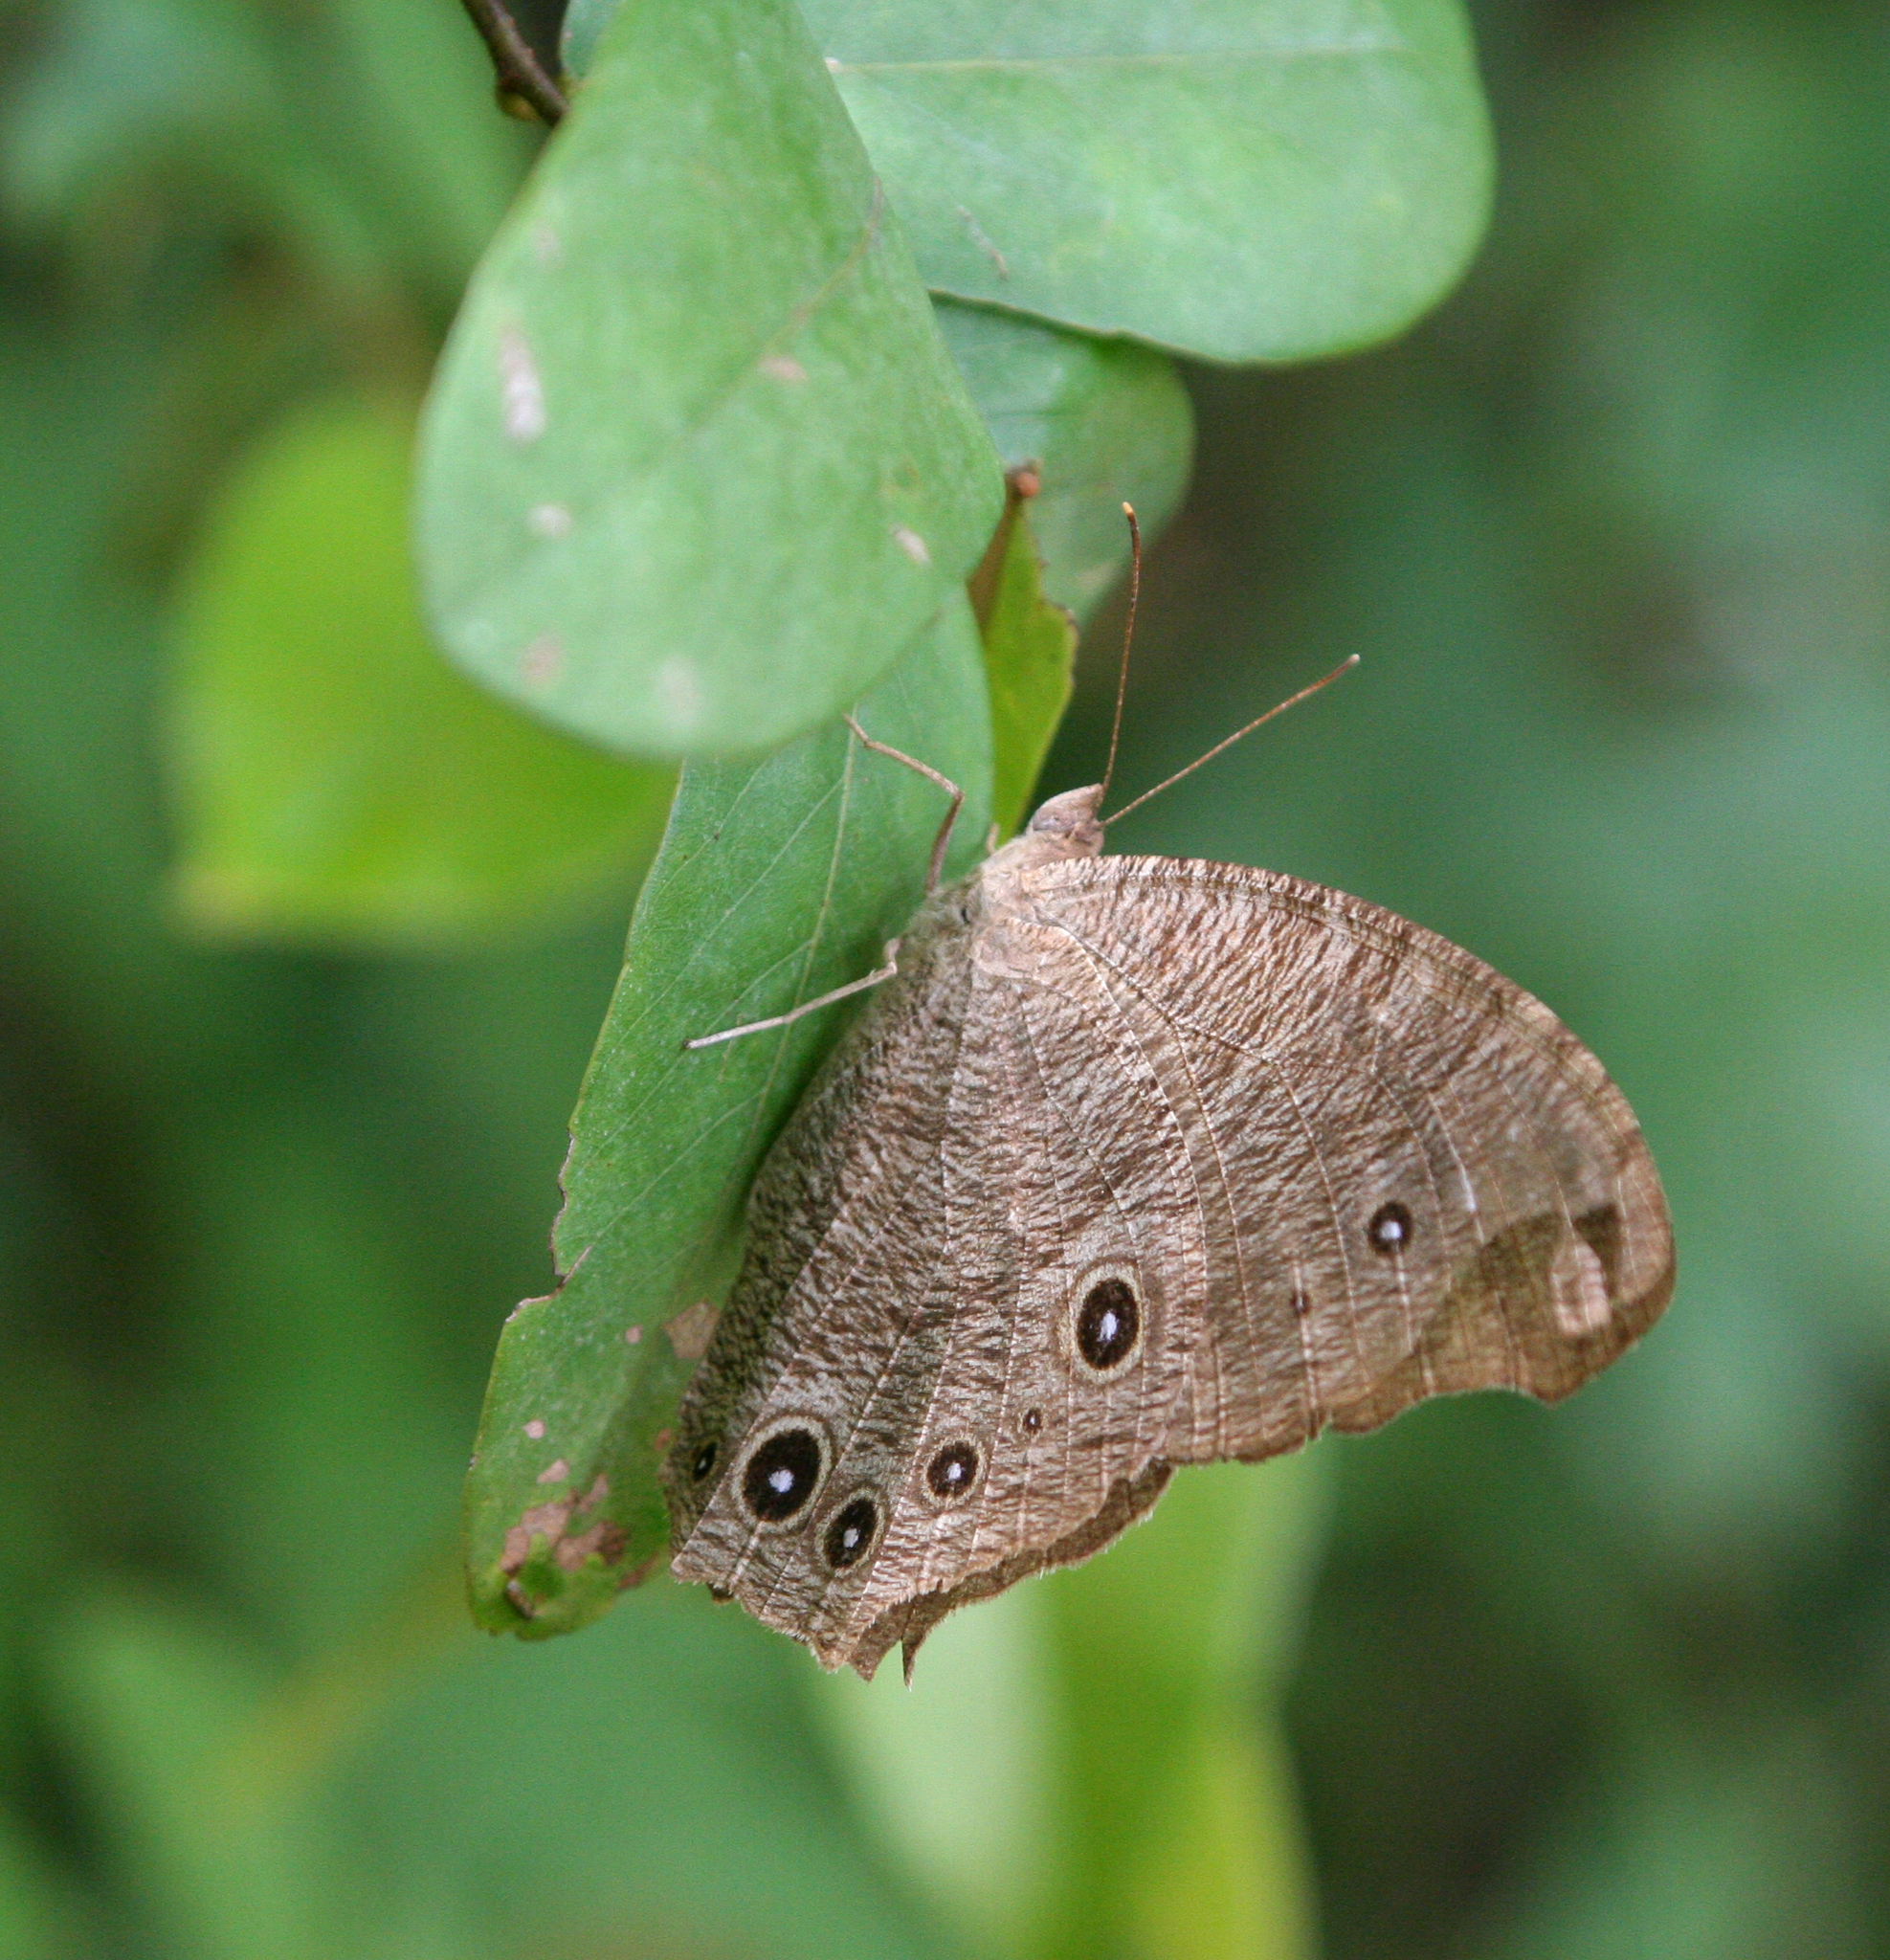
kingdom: Animalia
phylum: Arthropoda
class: Insecta
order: Lepidoptera
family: Nymphalidae
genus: Melanitis
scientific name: Melanitis leda
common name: Twilight brown
